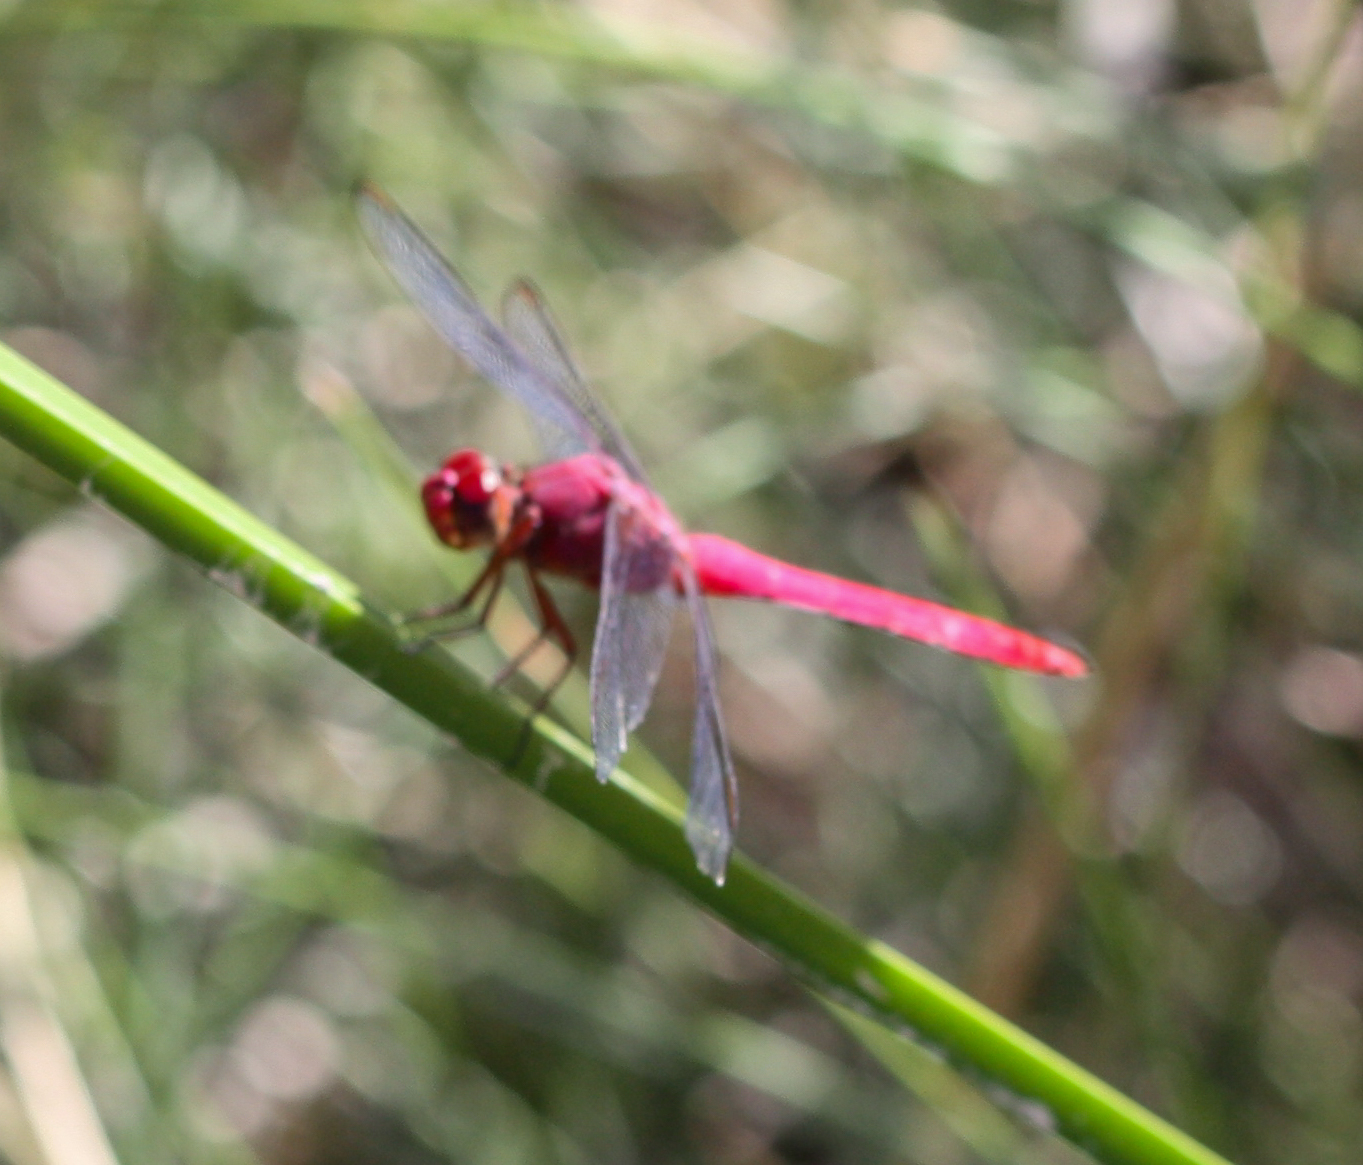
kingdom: Animalia
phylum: Arthropoda
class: Insecta
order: Odonata
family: Libellulidae
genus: Orthemis
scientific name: Orthemis discolor
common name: Carmine skimmer
